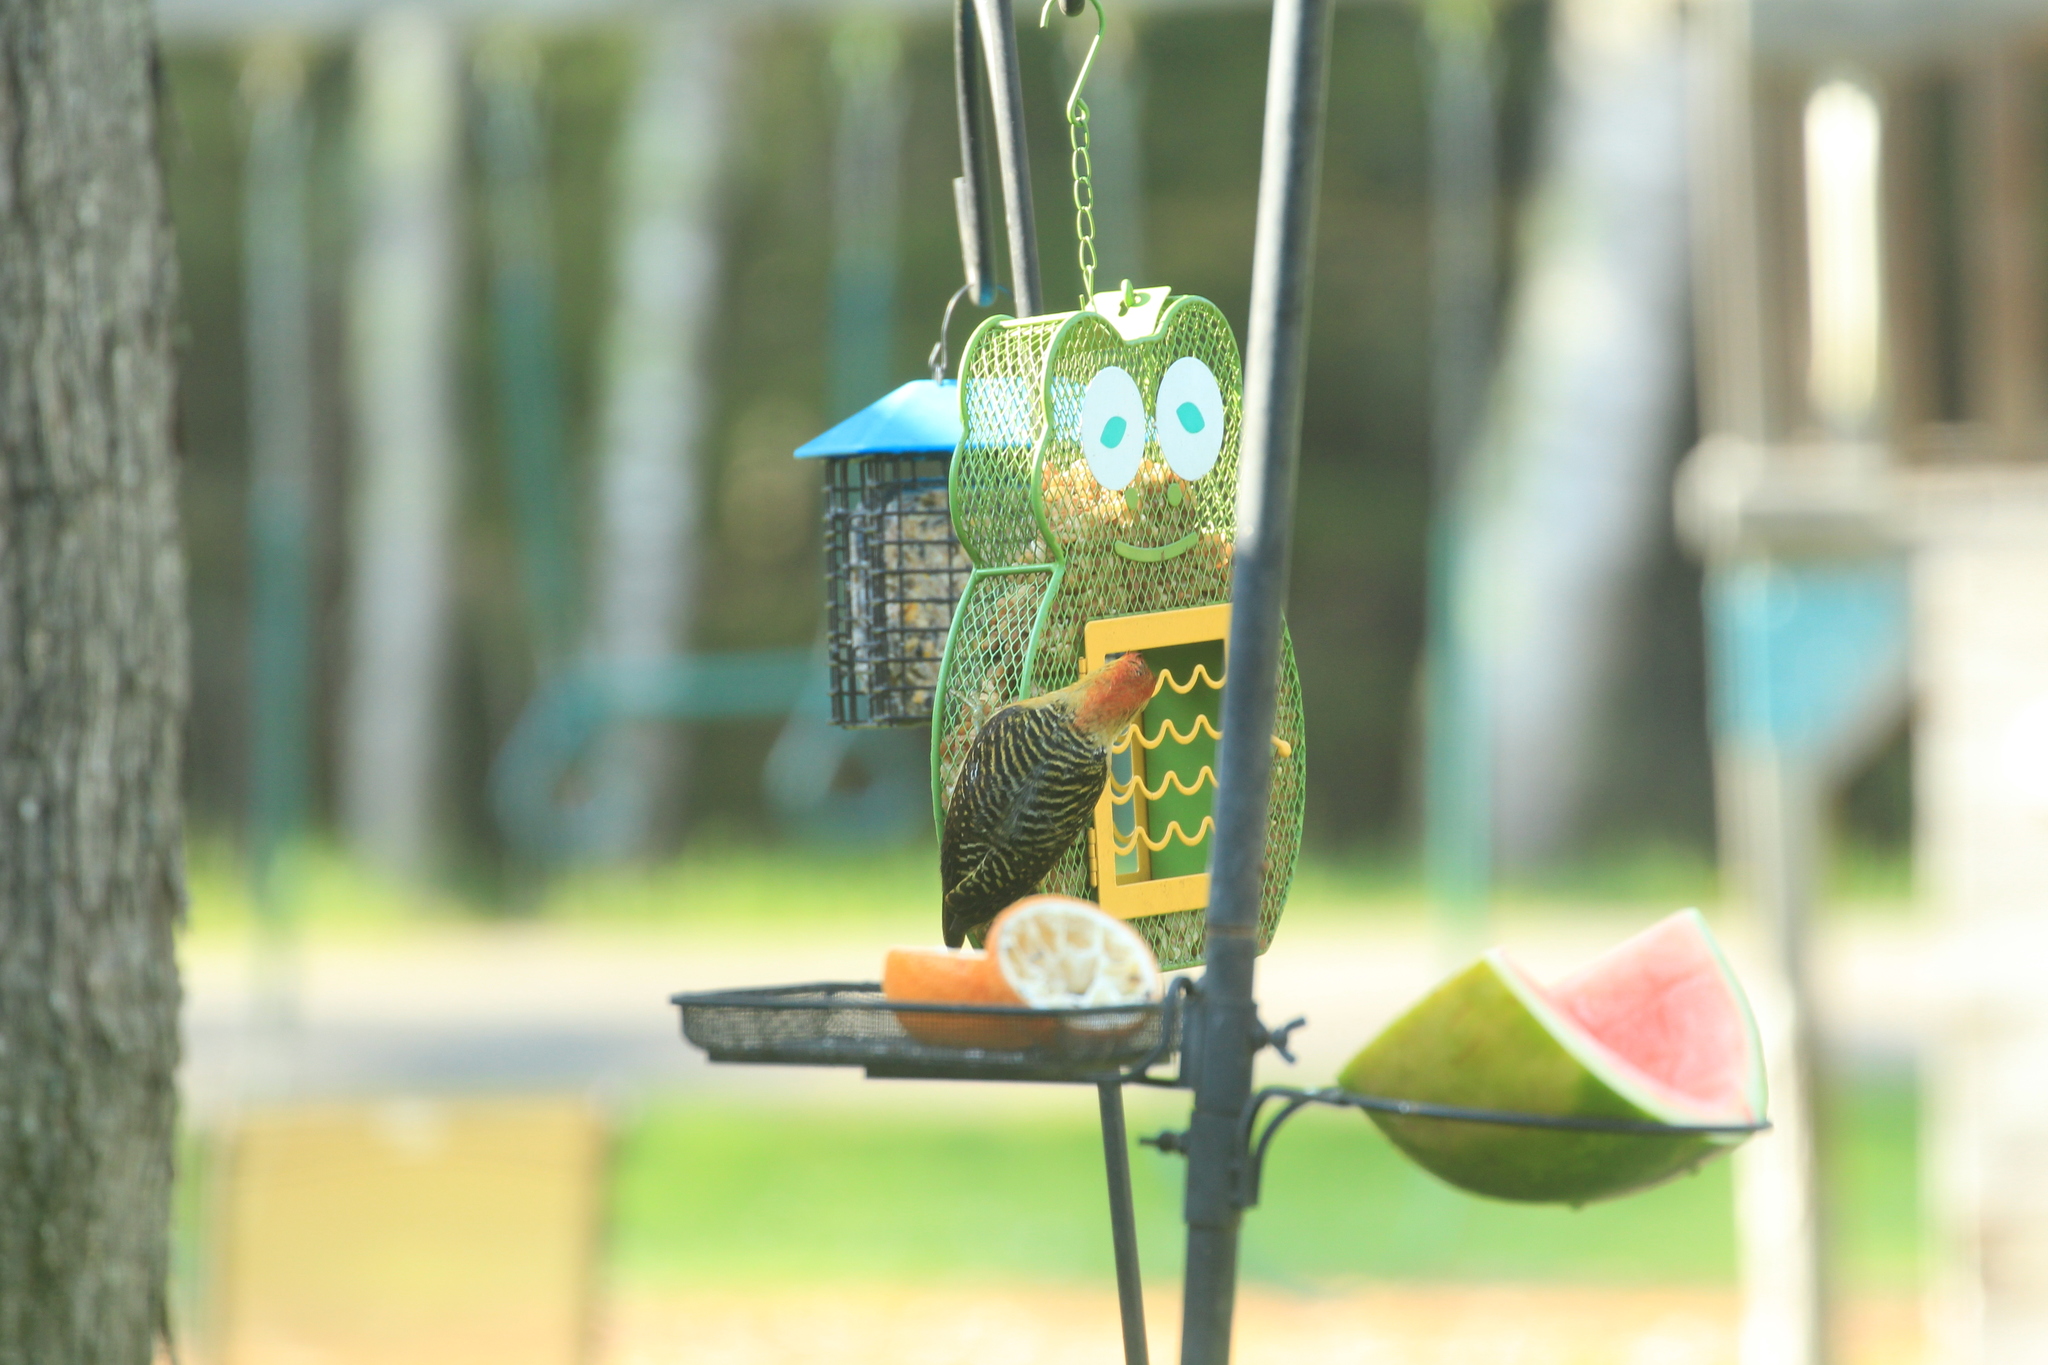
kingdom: Animalia
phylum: Chordata
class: Aves
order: Piciformes
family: Picidae
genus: Melanerpes
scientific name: Melanerpes carolinus
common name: Red-bellied woodpecker
